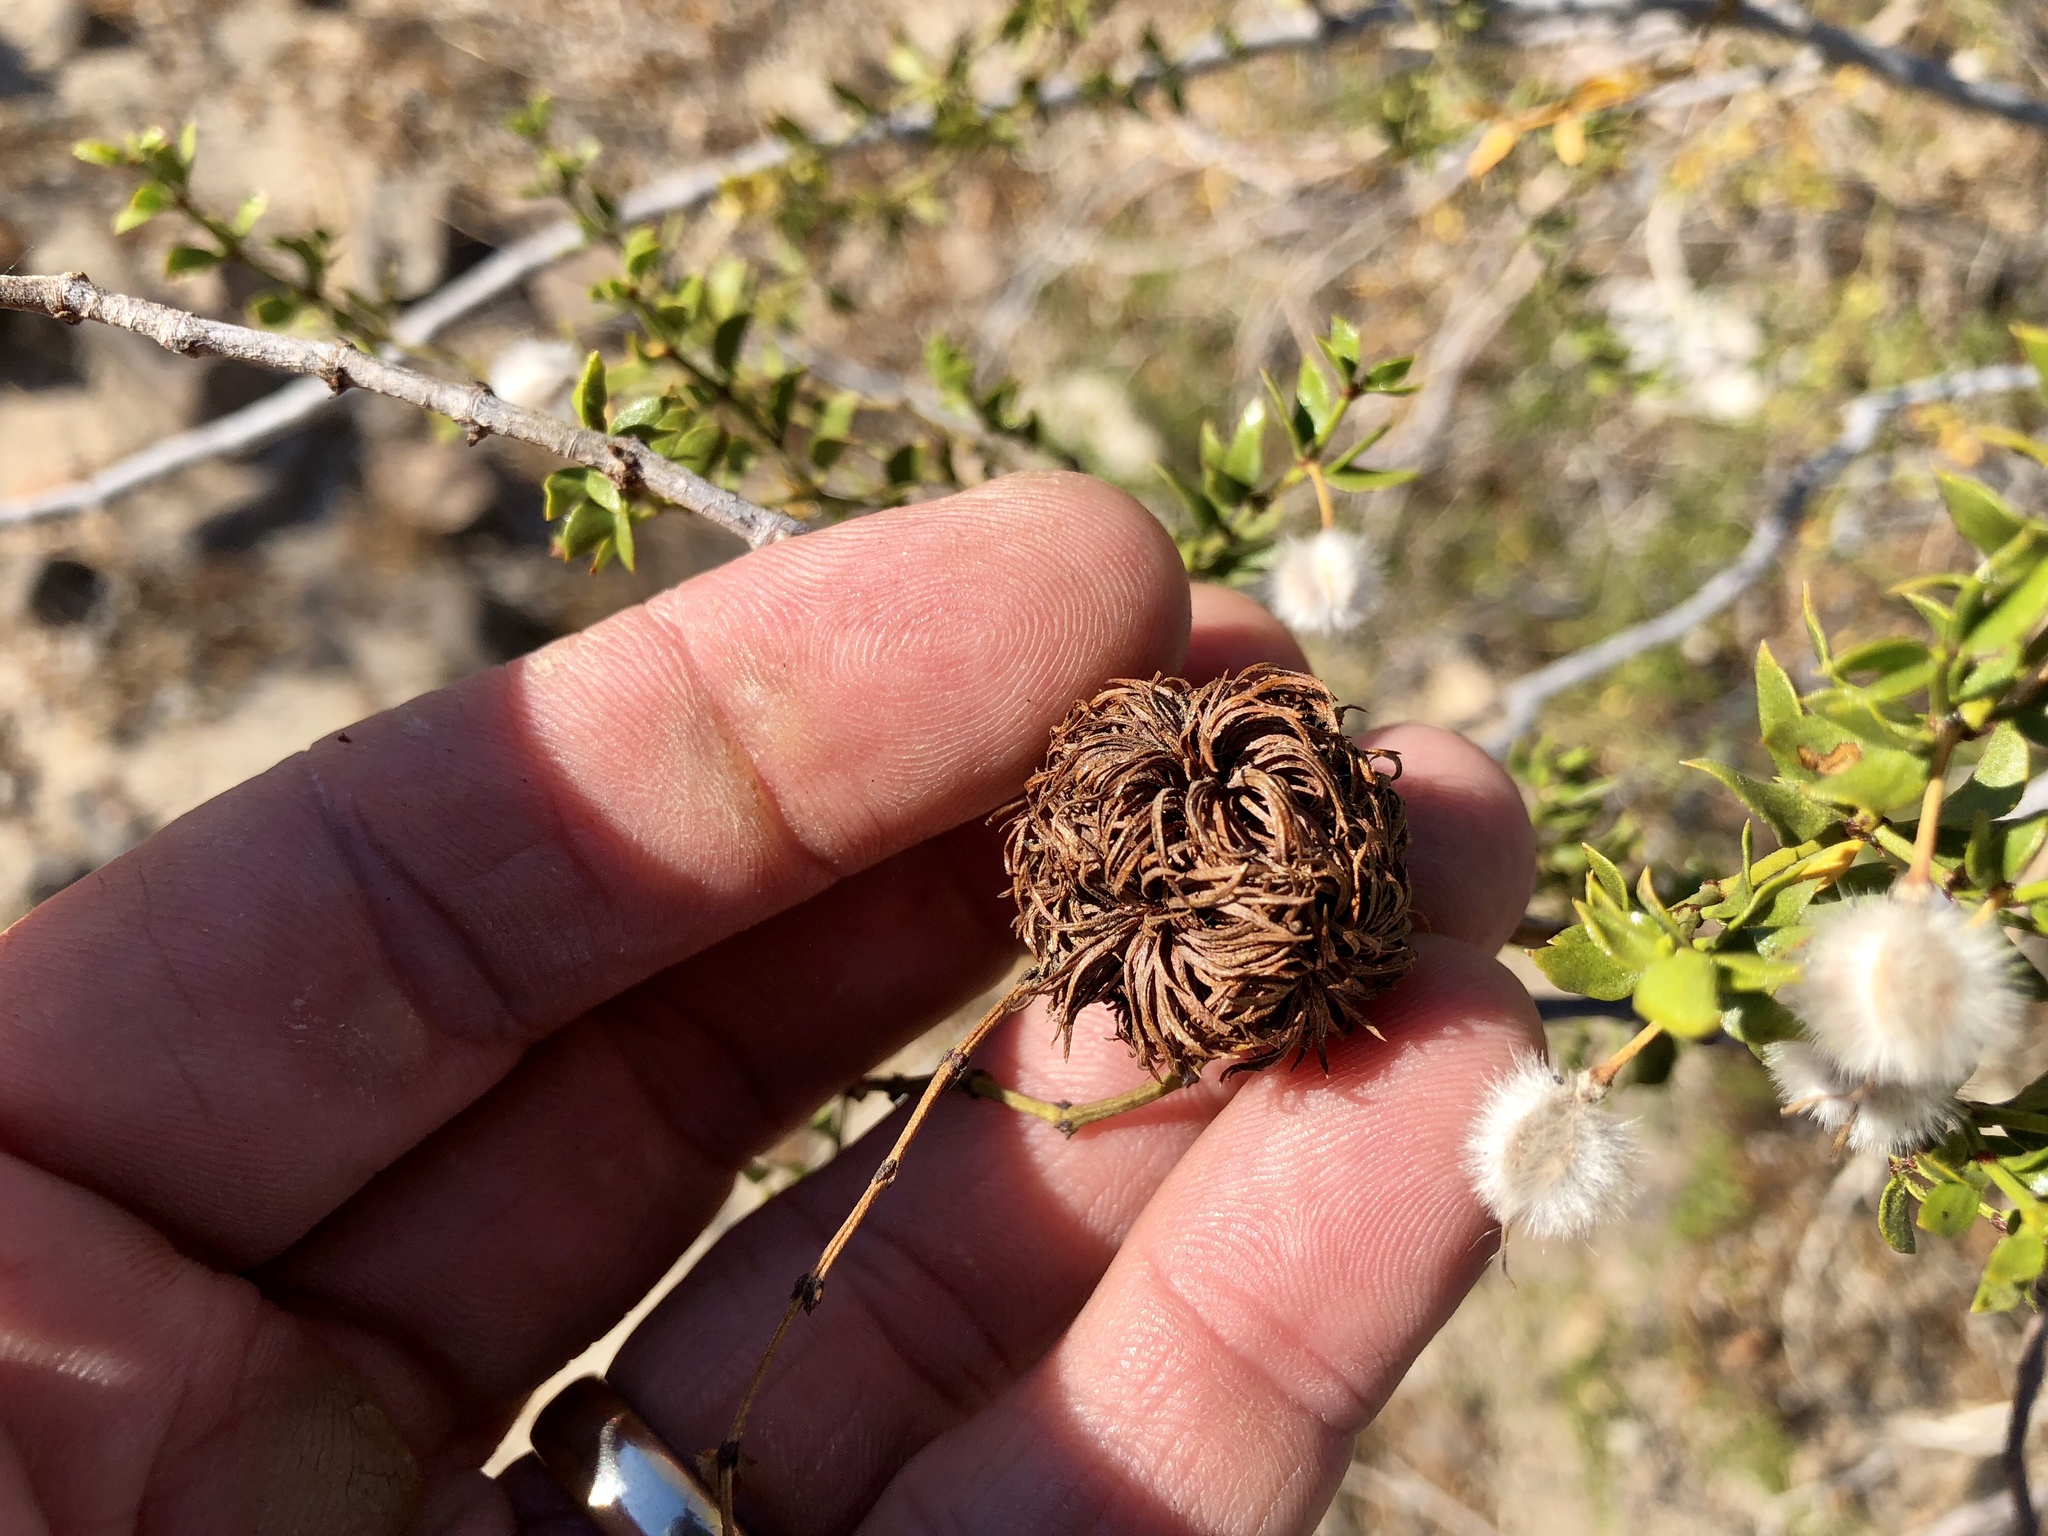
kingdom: Animalia
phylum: Arthropoda
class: Insecta
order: Diptera
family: Cecidomyiidae
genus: Asphondylia
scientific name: Asphondylia auripila
